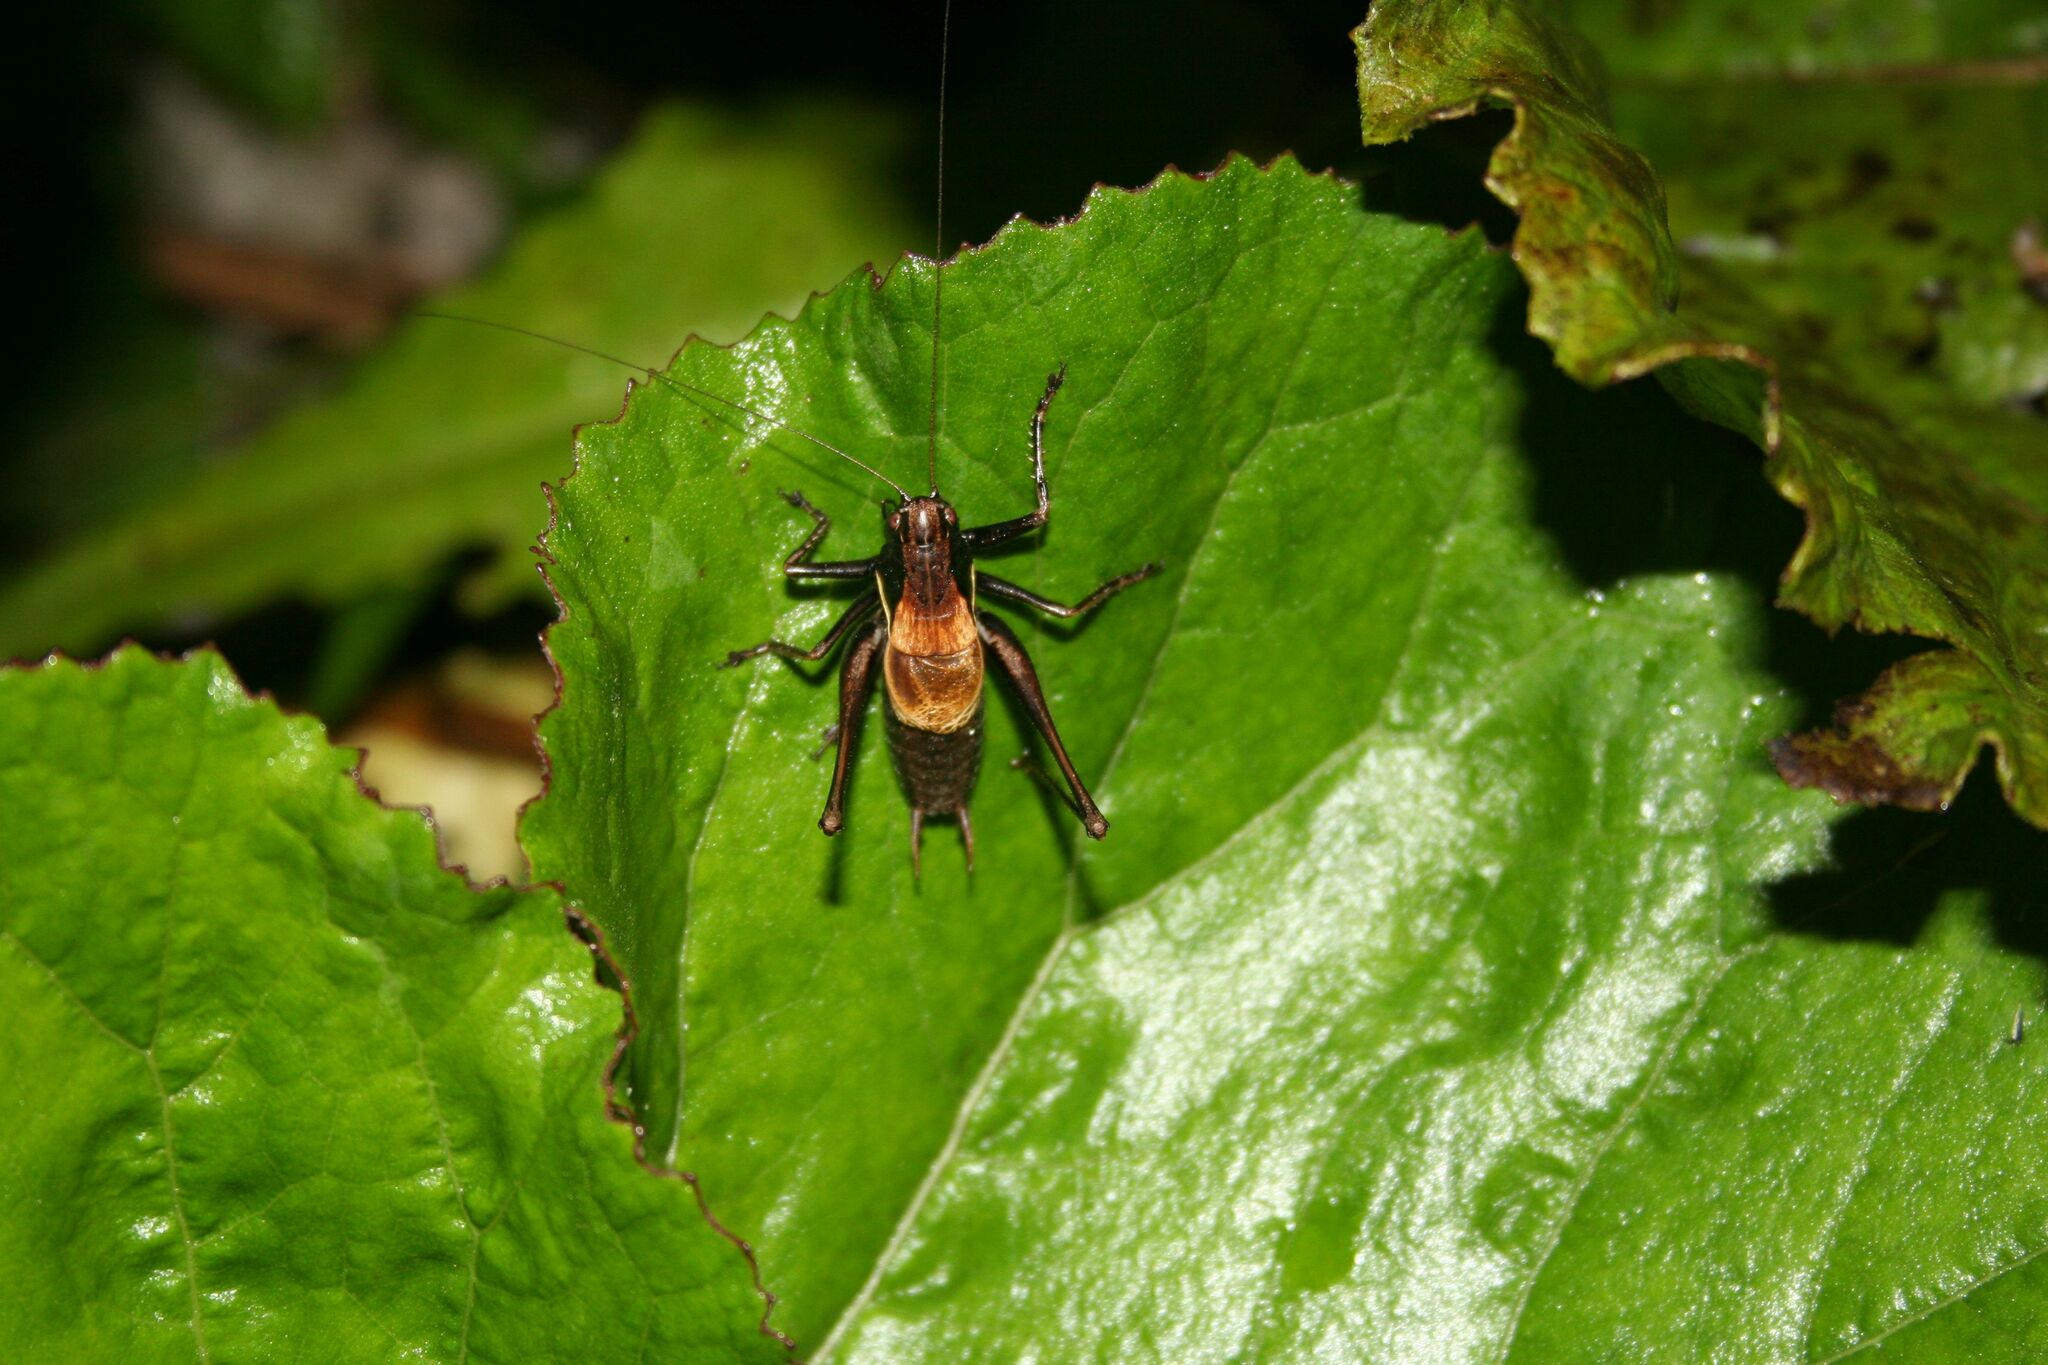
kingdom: Animalia
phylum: Arthropoda
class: Insecta
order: Orthoptera
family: Tettigoniidae
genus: Pholidoptera
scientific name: Pholidoptera aptera
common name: Alpine dark bush-cricket
